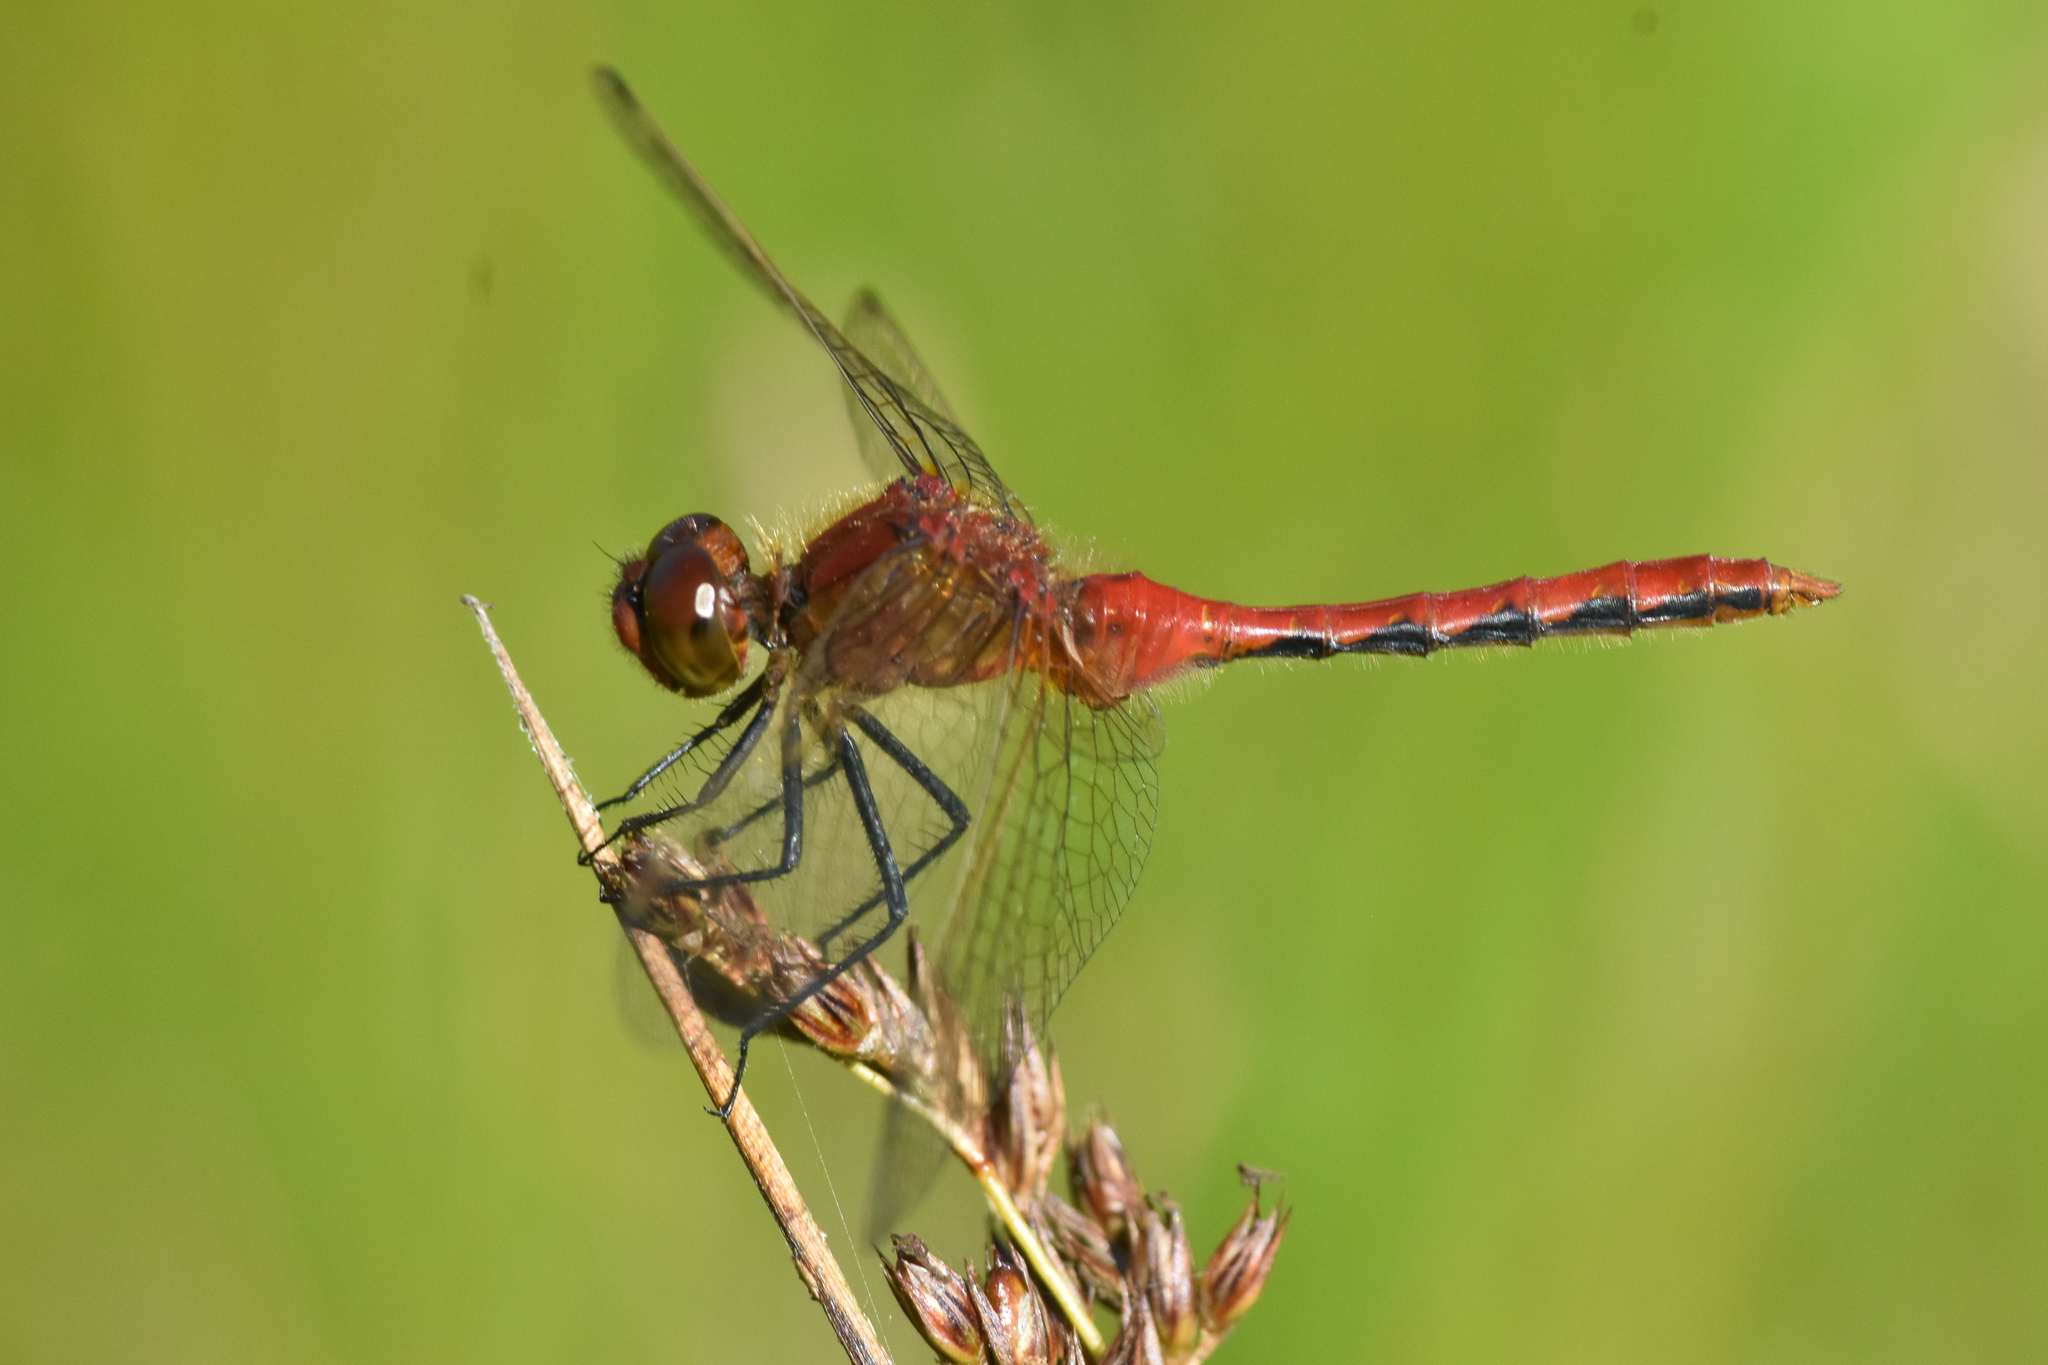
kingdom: Animalia
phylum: Arthropoda
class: Insecta
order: Odonata
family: Libellulidae
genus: Sympetrum
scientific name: Sympetrum internum
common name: Cherry-faced meadowhawk
